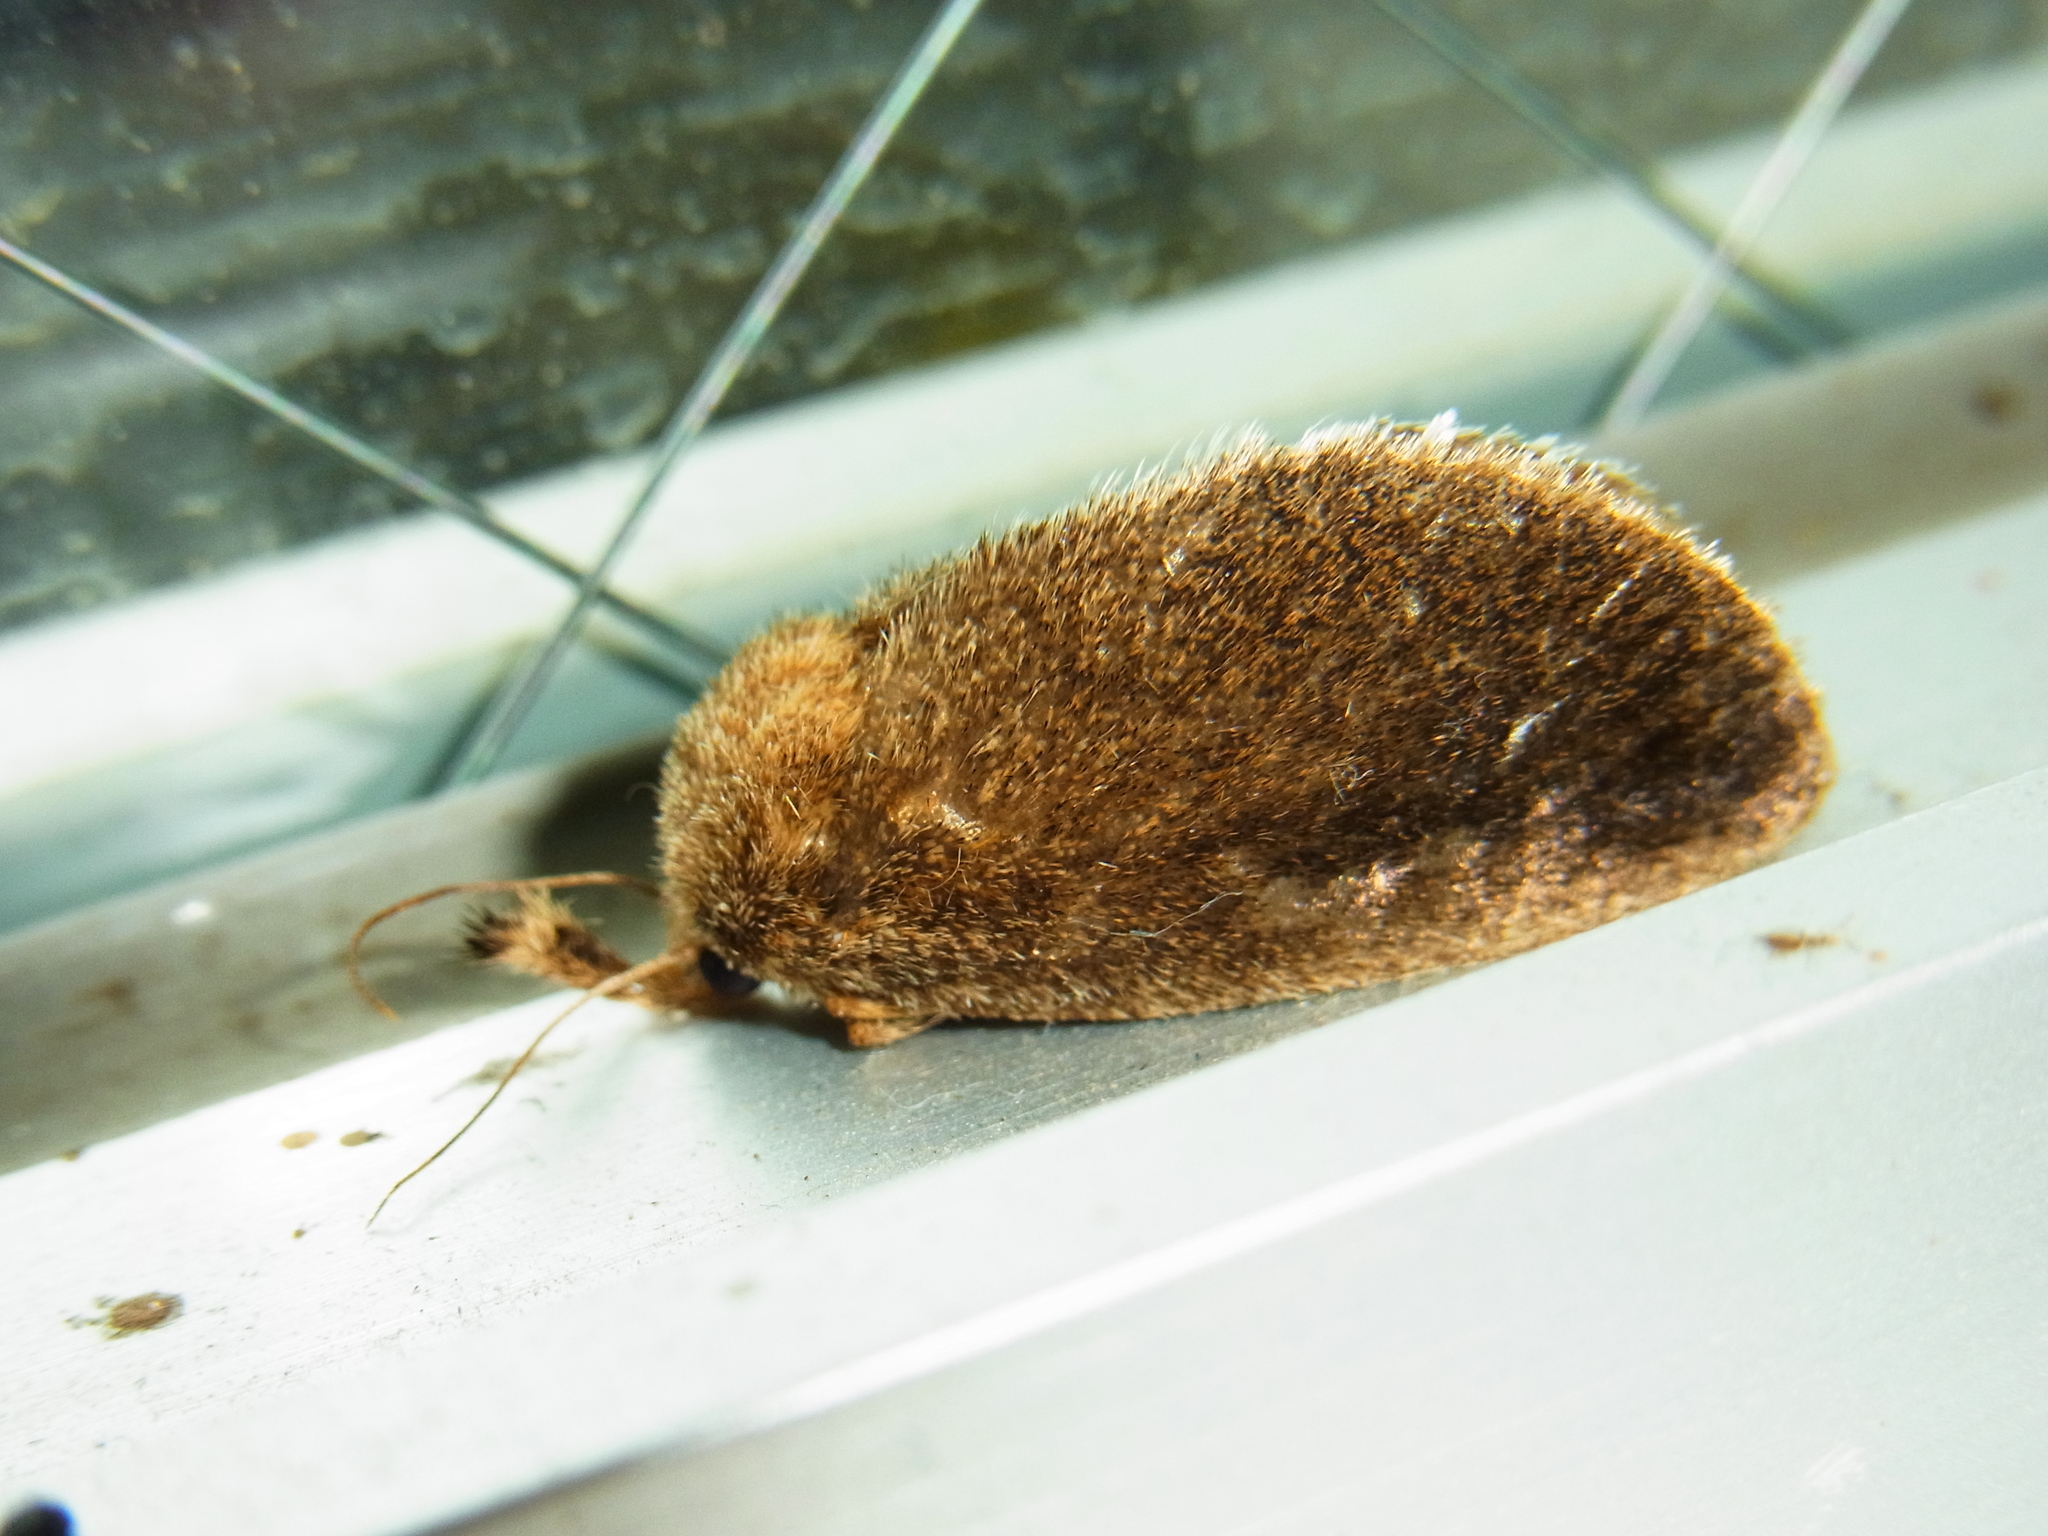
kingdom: Animalia
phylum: Arthropoda
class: Insecta
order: Lepidoptera
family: Limacodidae
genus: Scopelodes
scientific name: Scopelodes contracta
